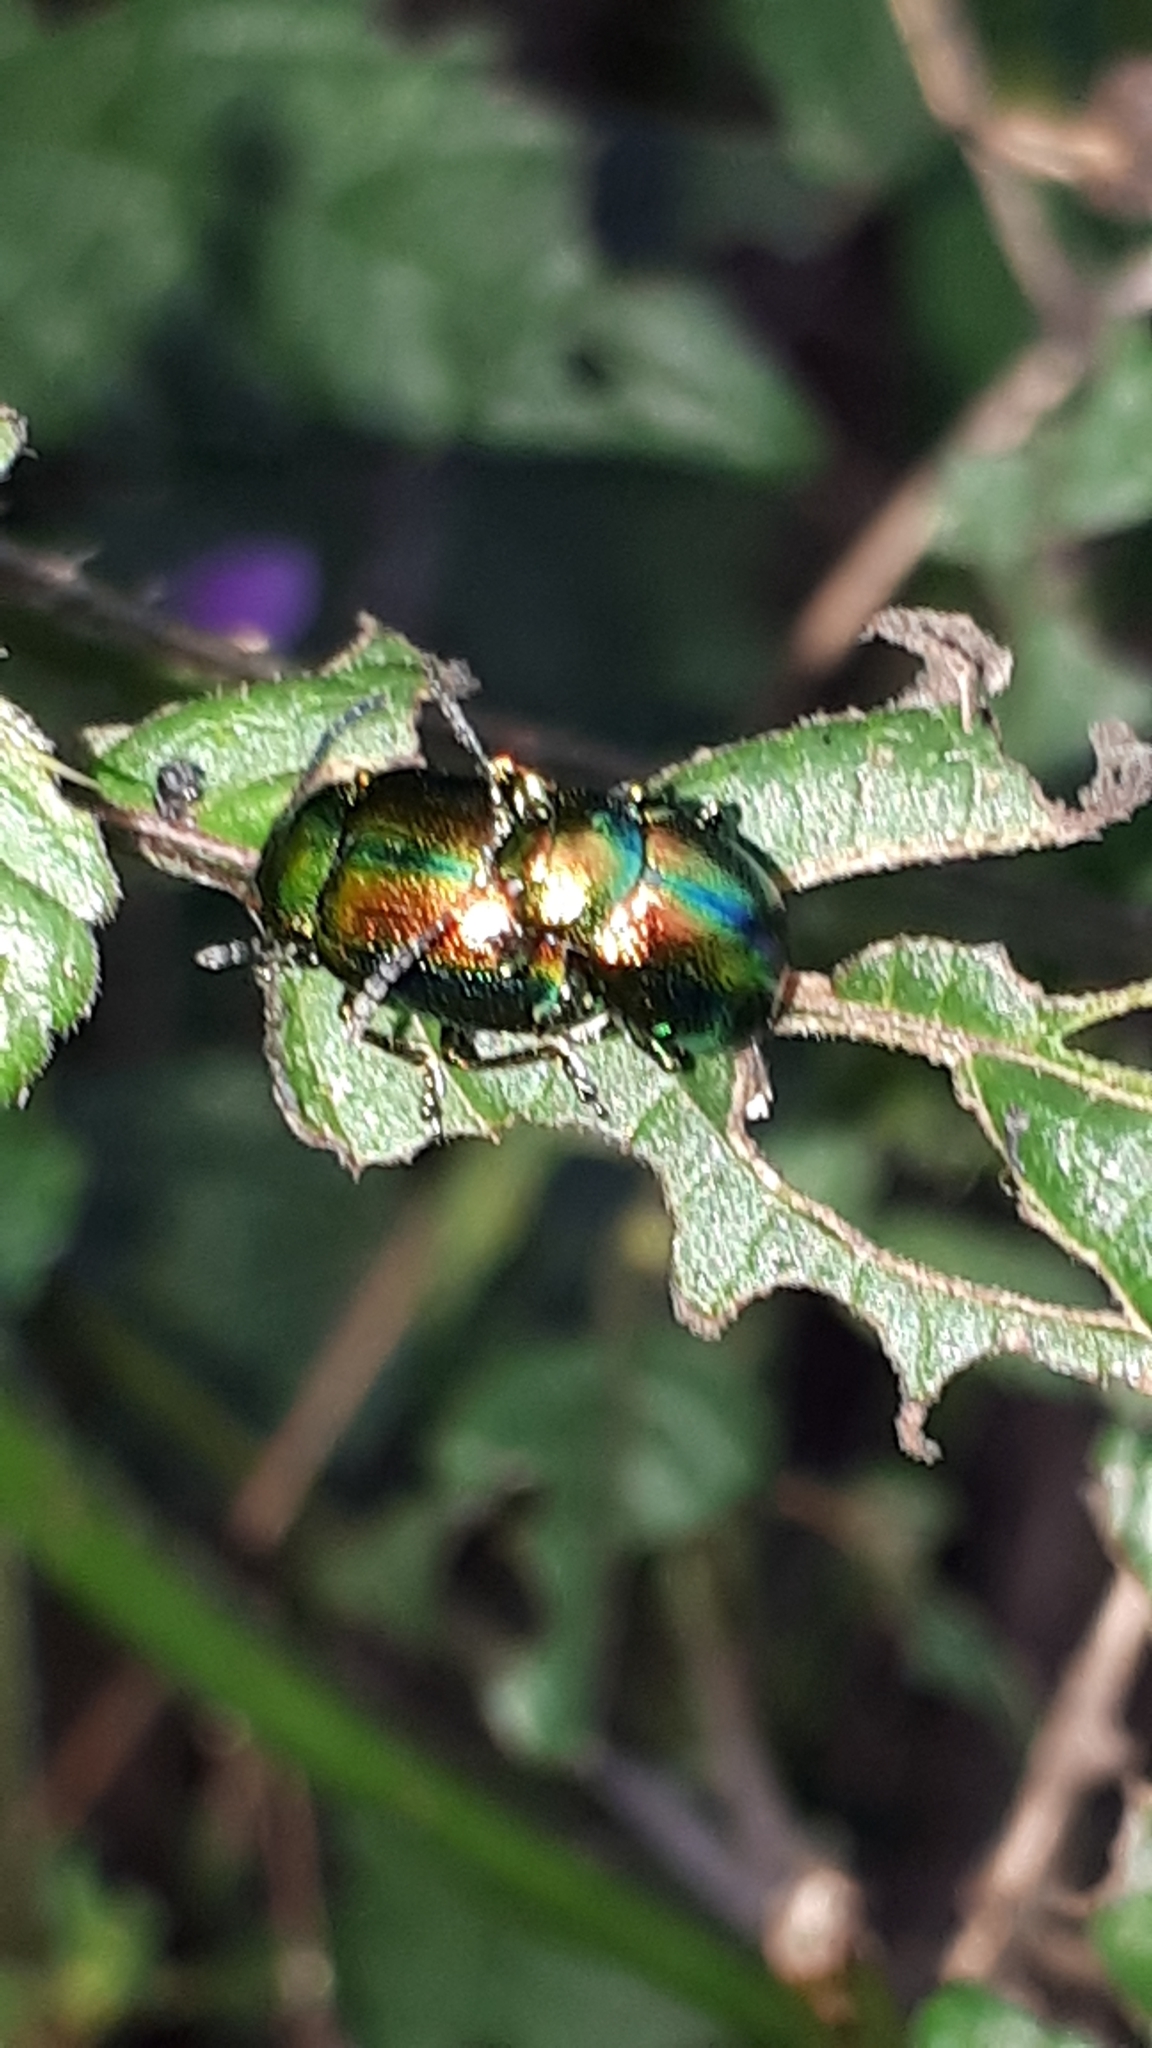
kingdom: Animalia
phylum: Arthropoda
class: Insecta
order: Coleoptera
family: Chrysomelidae
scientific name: Chrysomelidae
